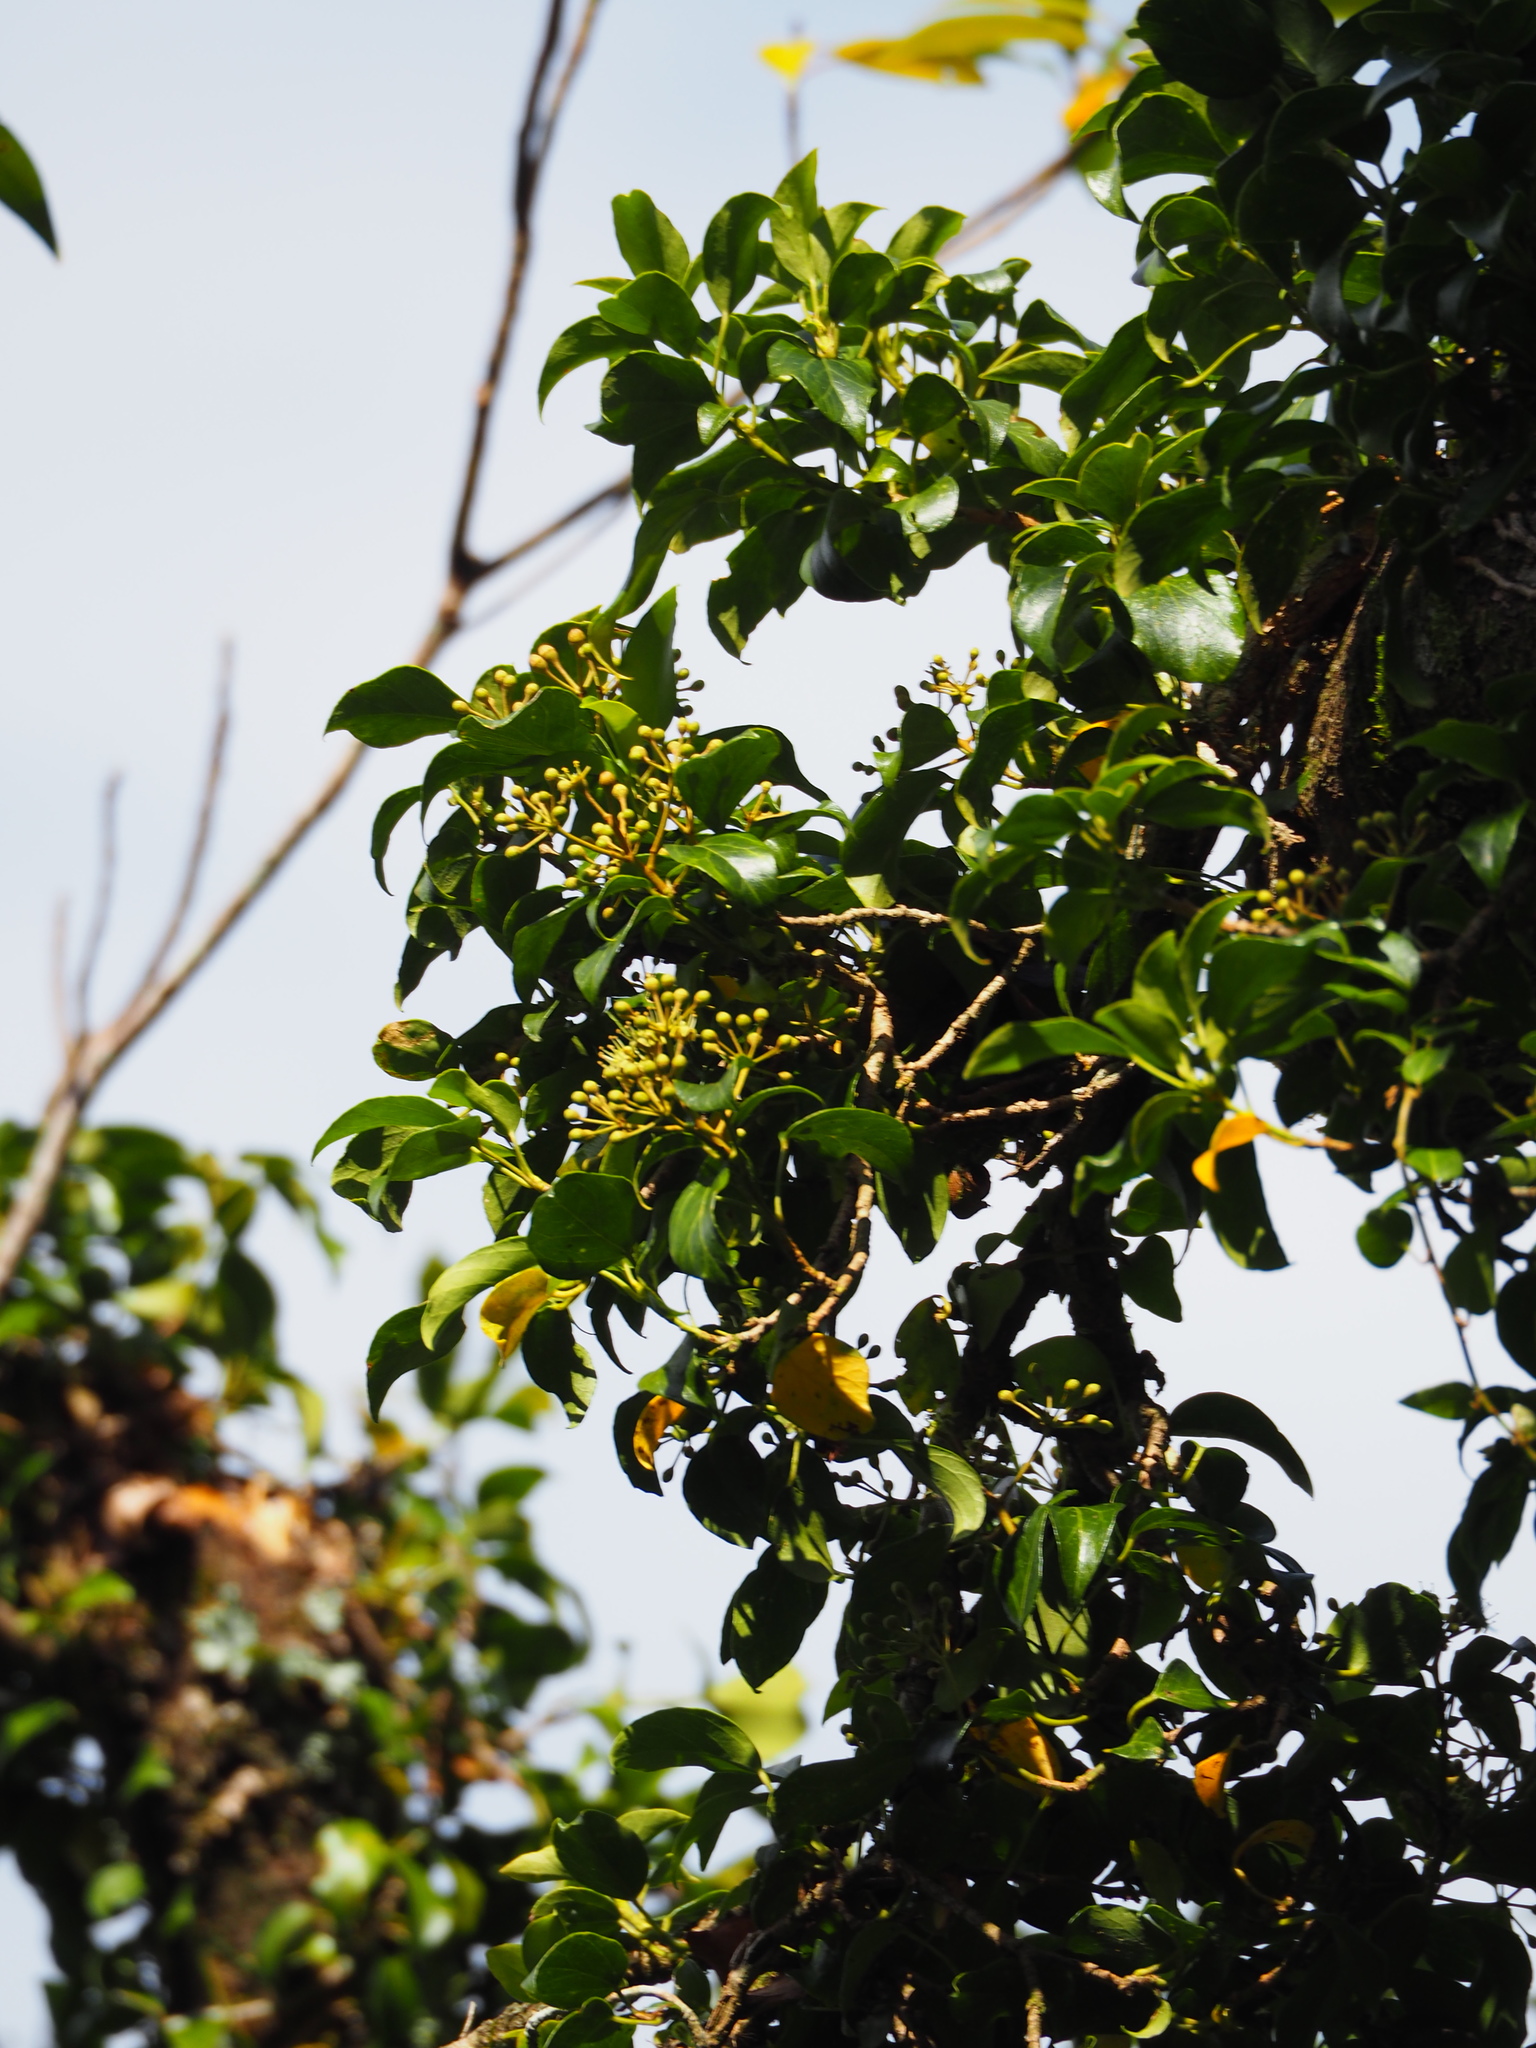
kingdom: Plantae
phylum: Tracheophyta
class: Magnoliopsida
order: Apiales
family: Araliaceae
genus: Hedera
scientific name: Hedera rhombea
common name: Japanese ivy
